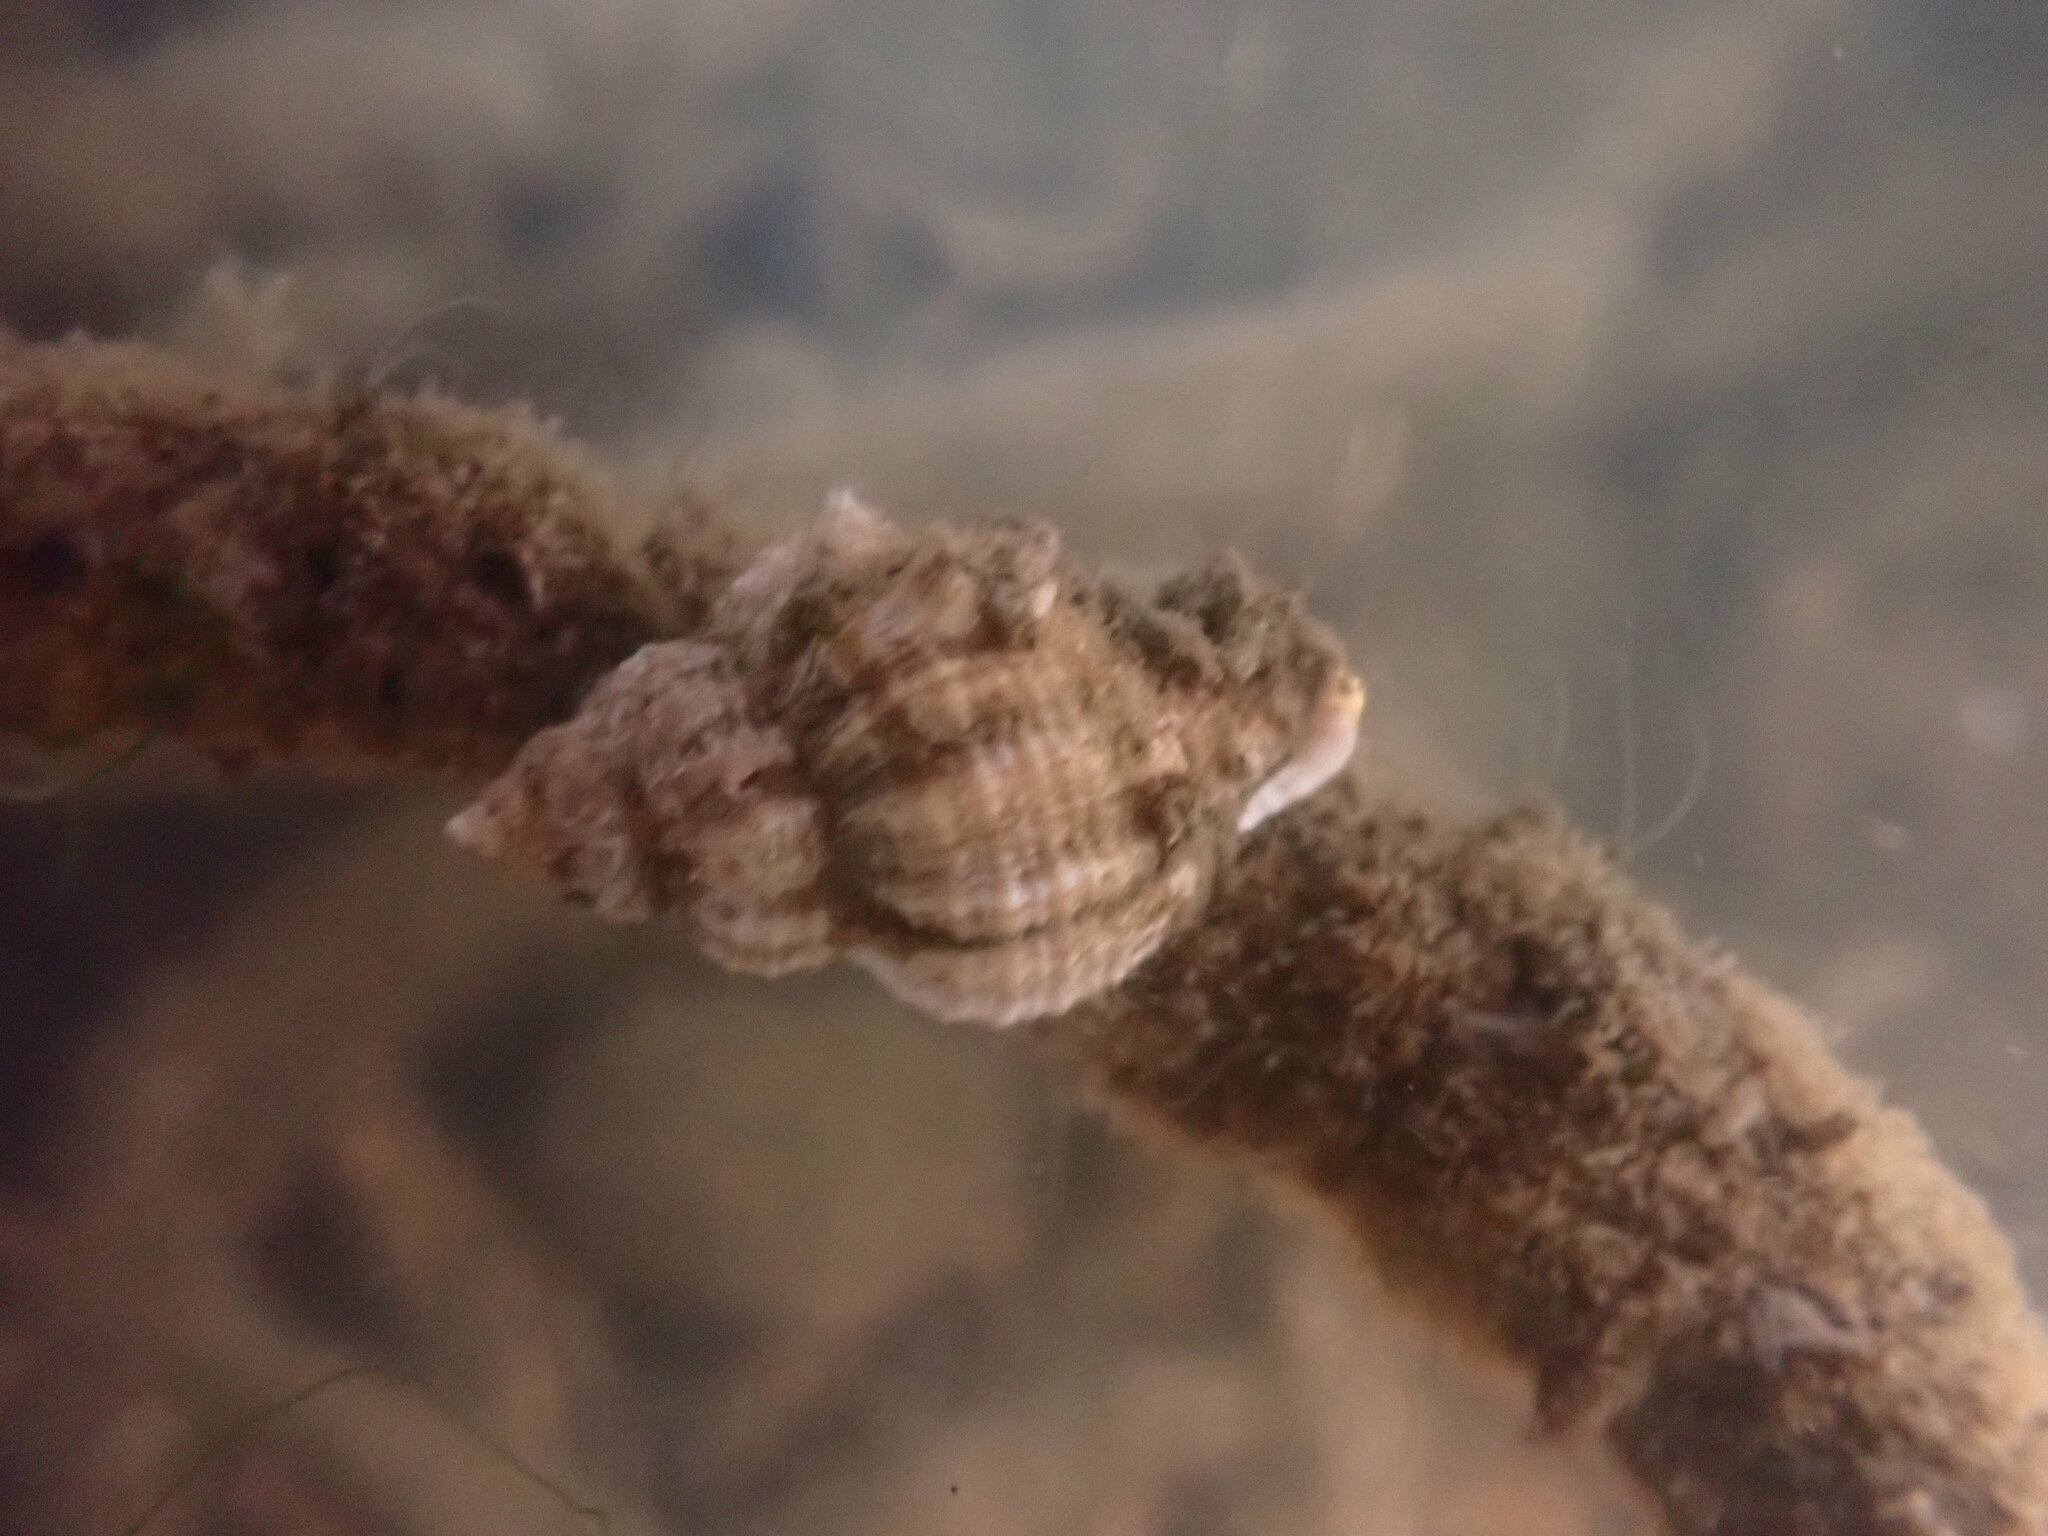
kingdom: Animalia
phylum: Mollusca
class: Gastropoda
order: Neogastropoda
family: Muricidae
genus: Urosalpinx
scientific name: Urosalpinx cinerea
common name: American sting winkle
